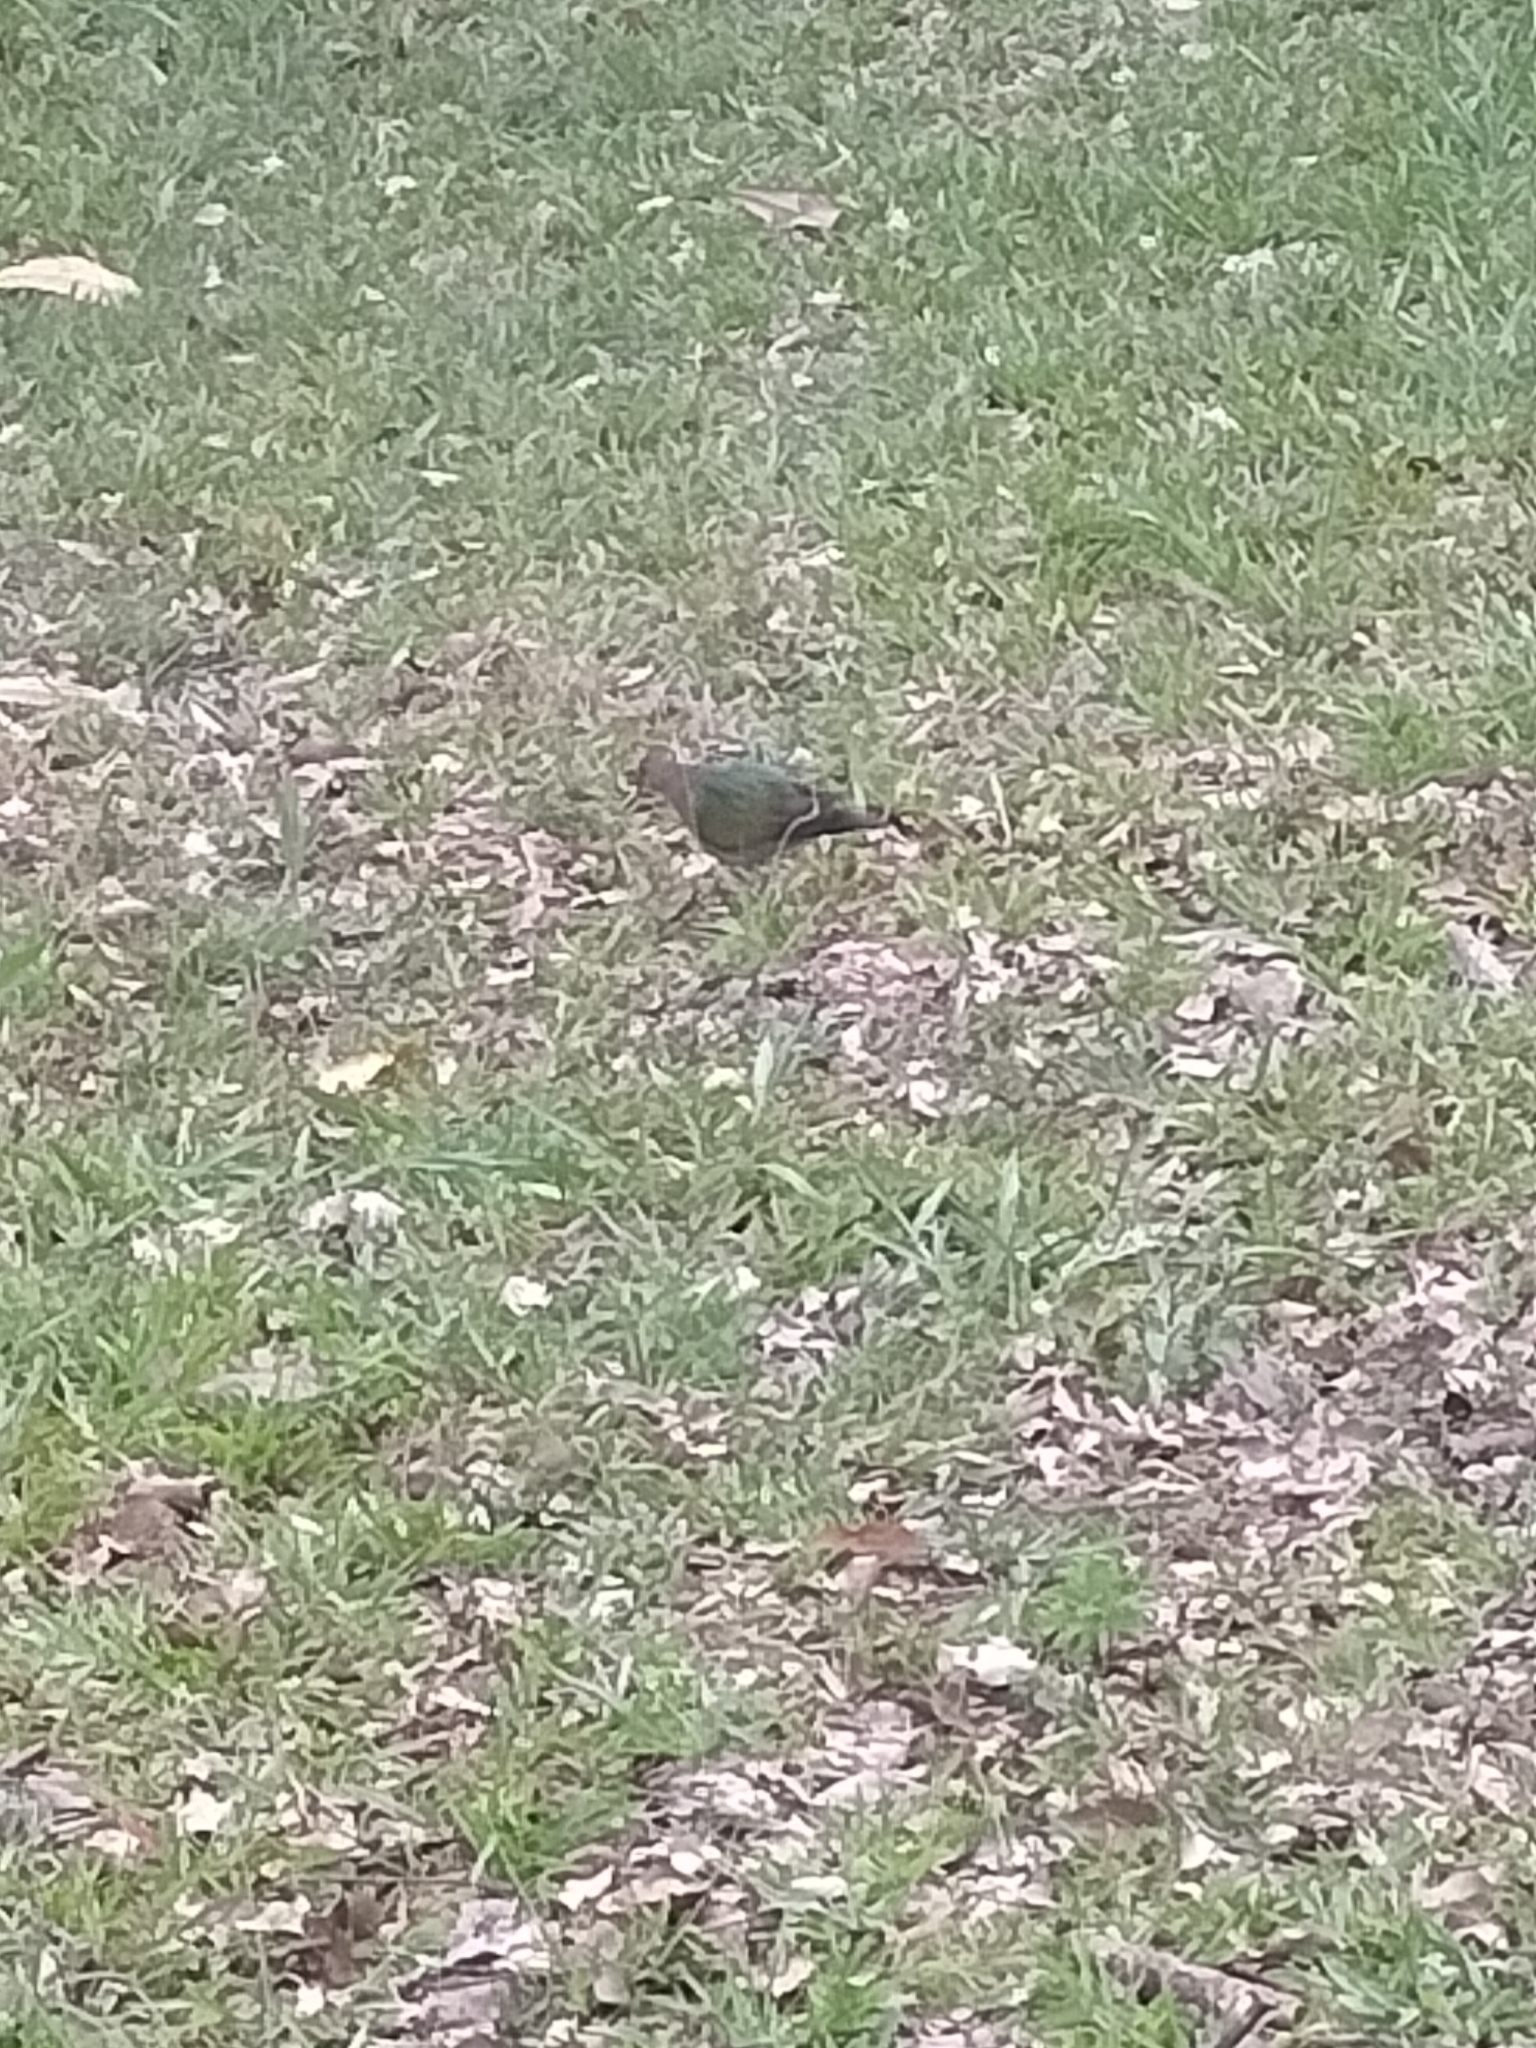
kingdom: Animalia
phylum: Chordata
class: Aves
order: Columbiformes
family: Columbidae
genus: Chalcophaps
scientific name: Chalcophaps longirostris
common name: Pacific emerald dove
